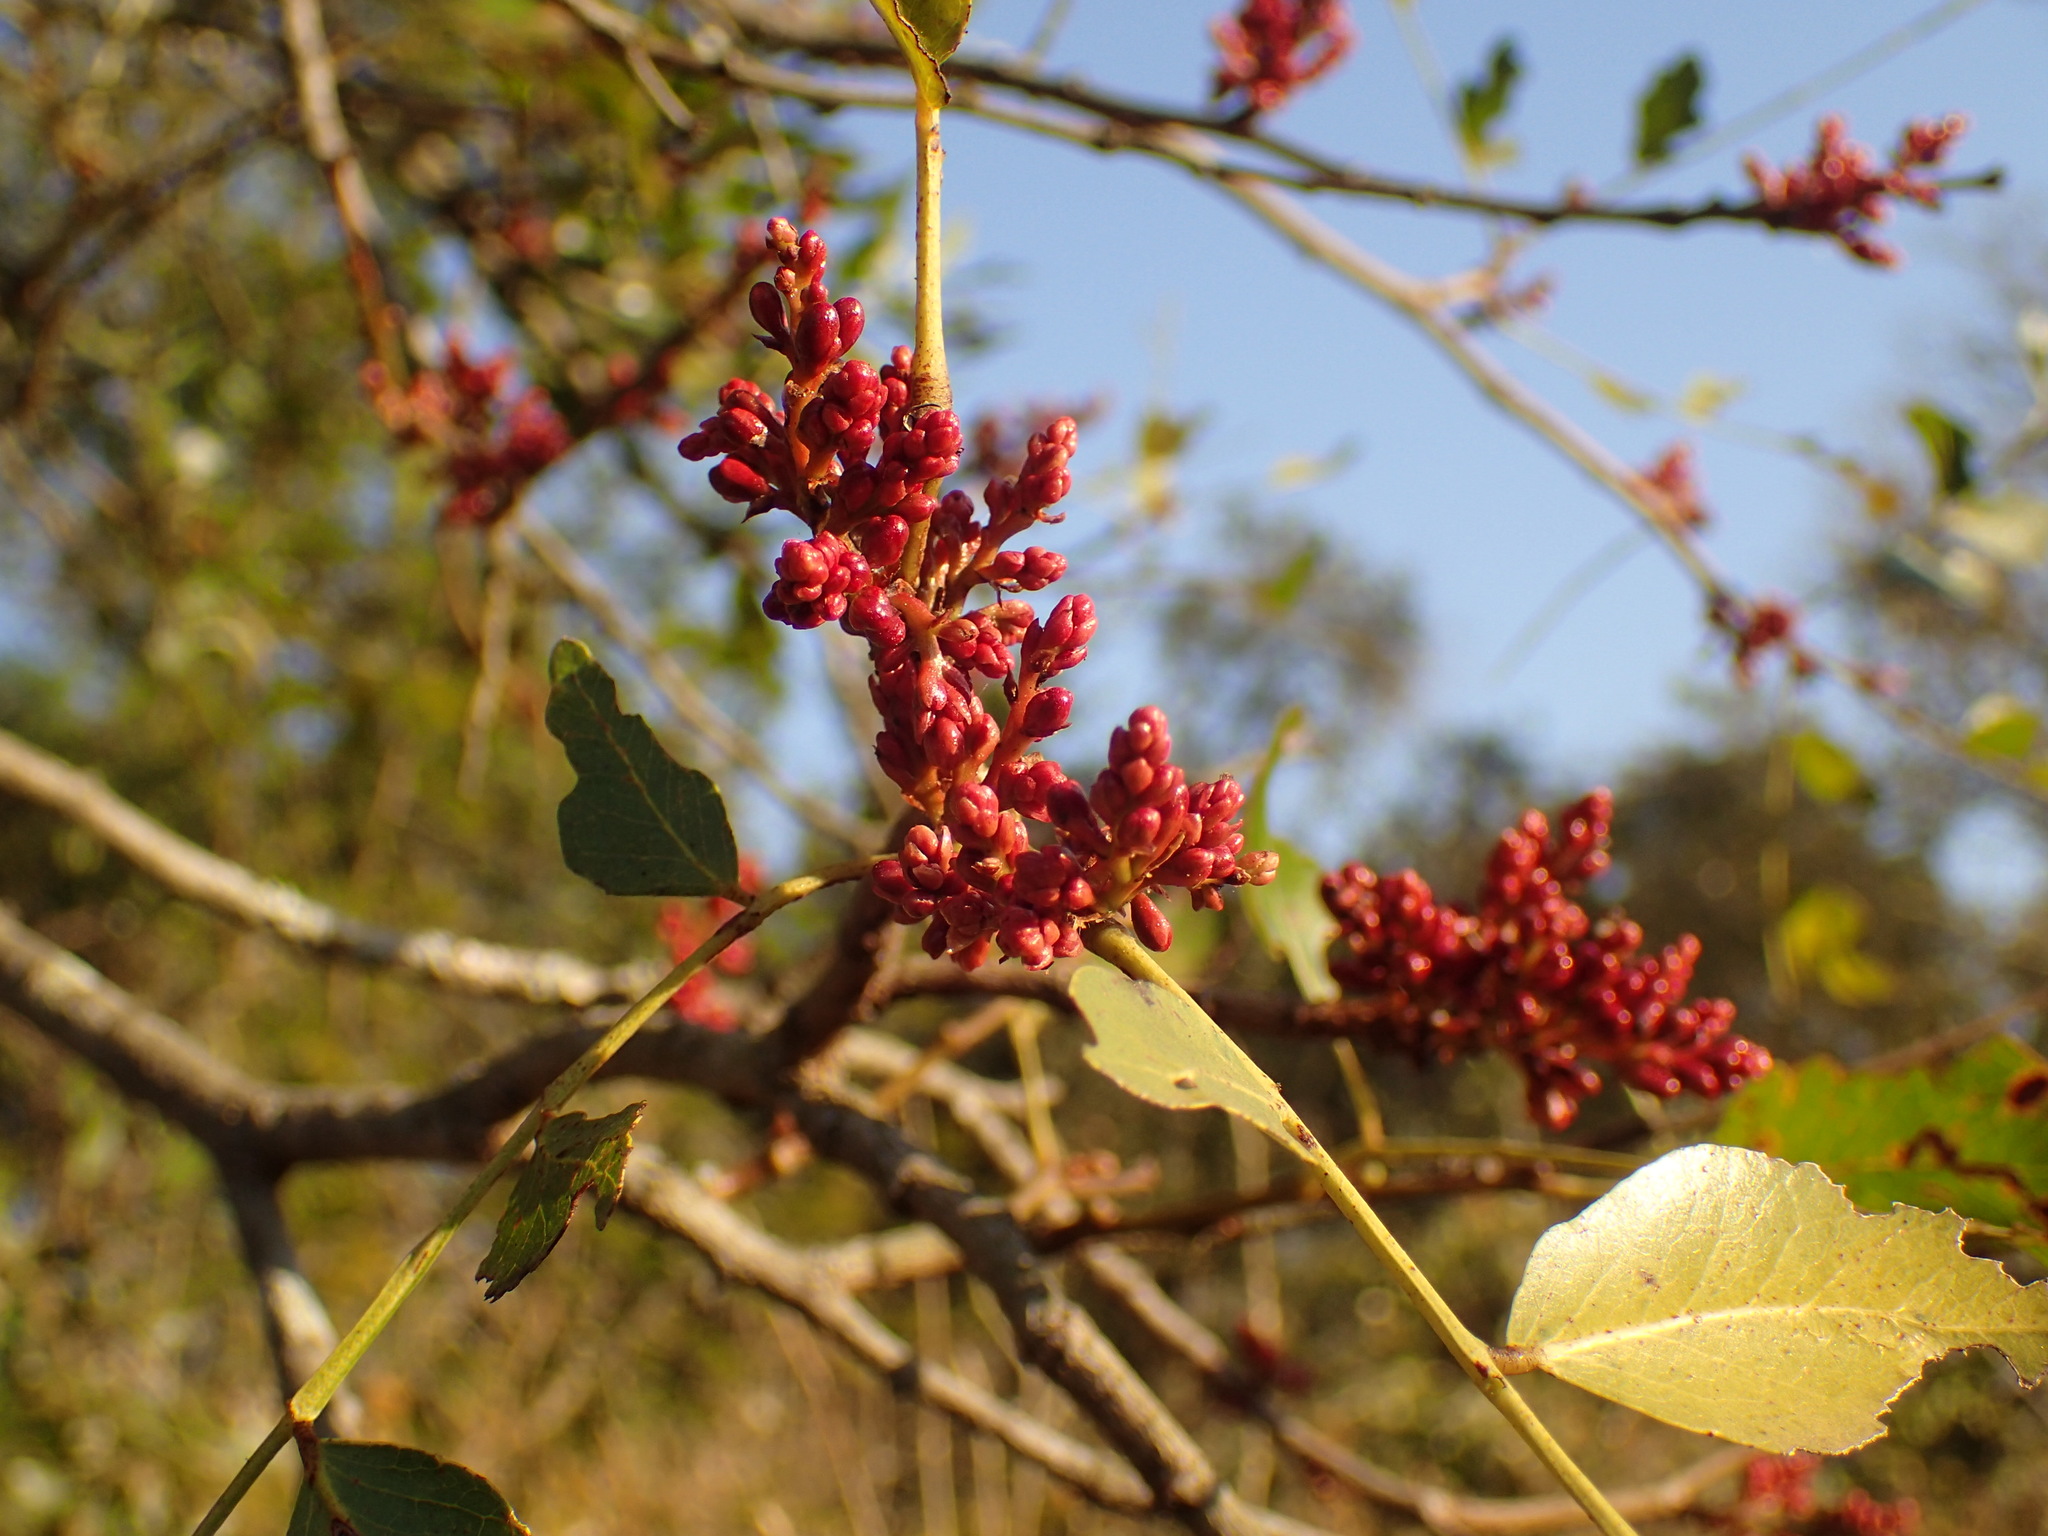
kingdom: Plantae
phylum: Tracheophyta
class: Magnoliopsida
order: Fabales
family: Fabaceae
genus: Schotia
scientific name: Schotia brachypetala
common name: Weeping boer-bean
